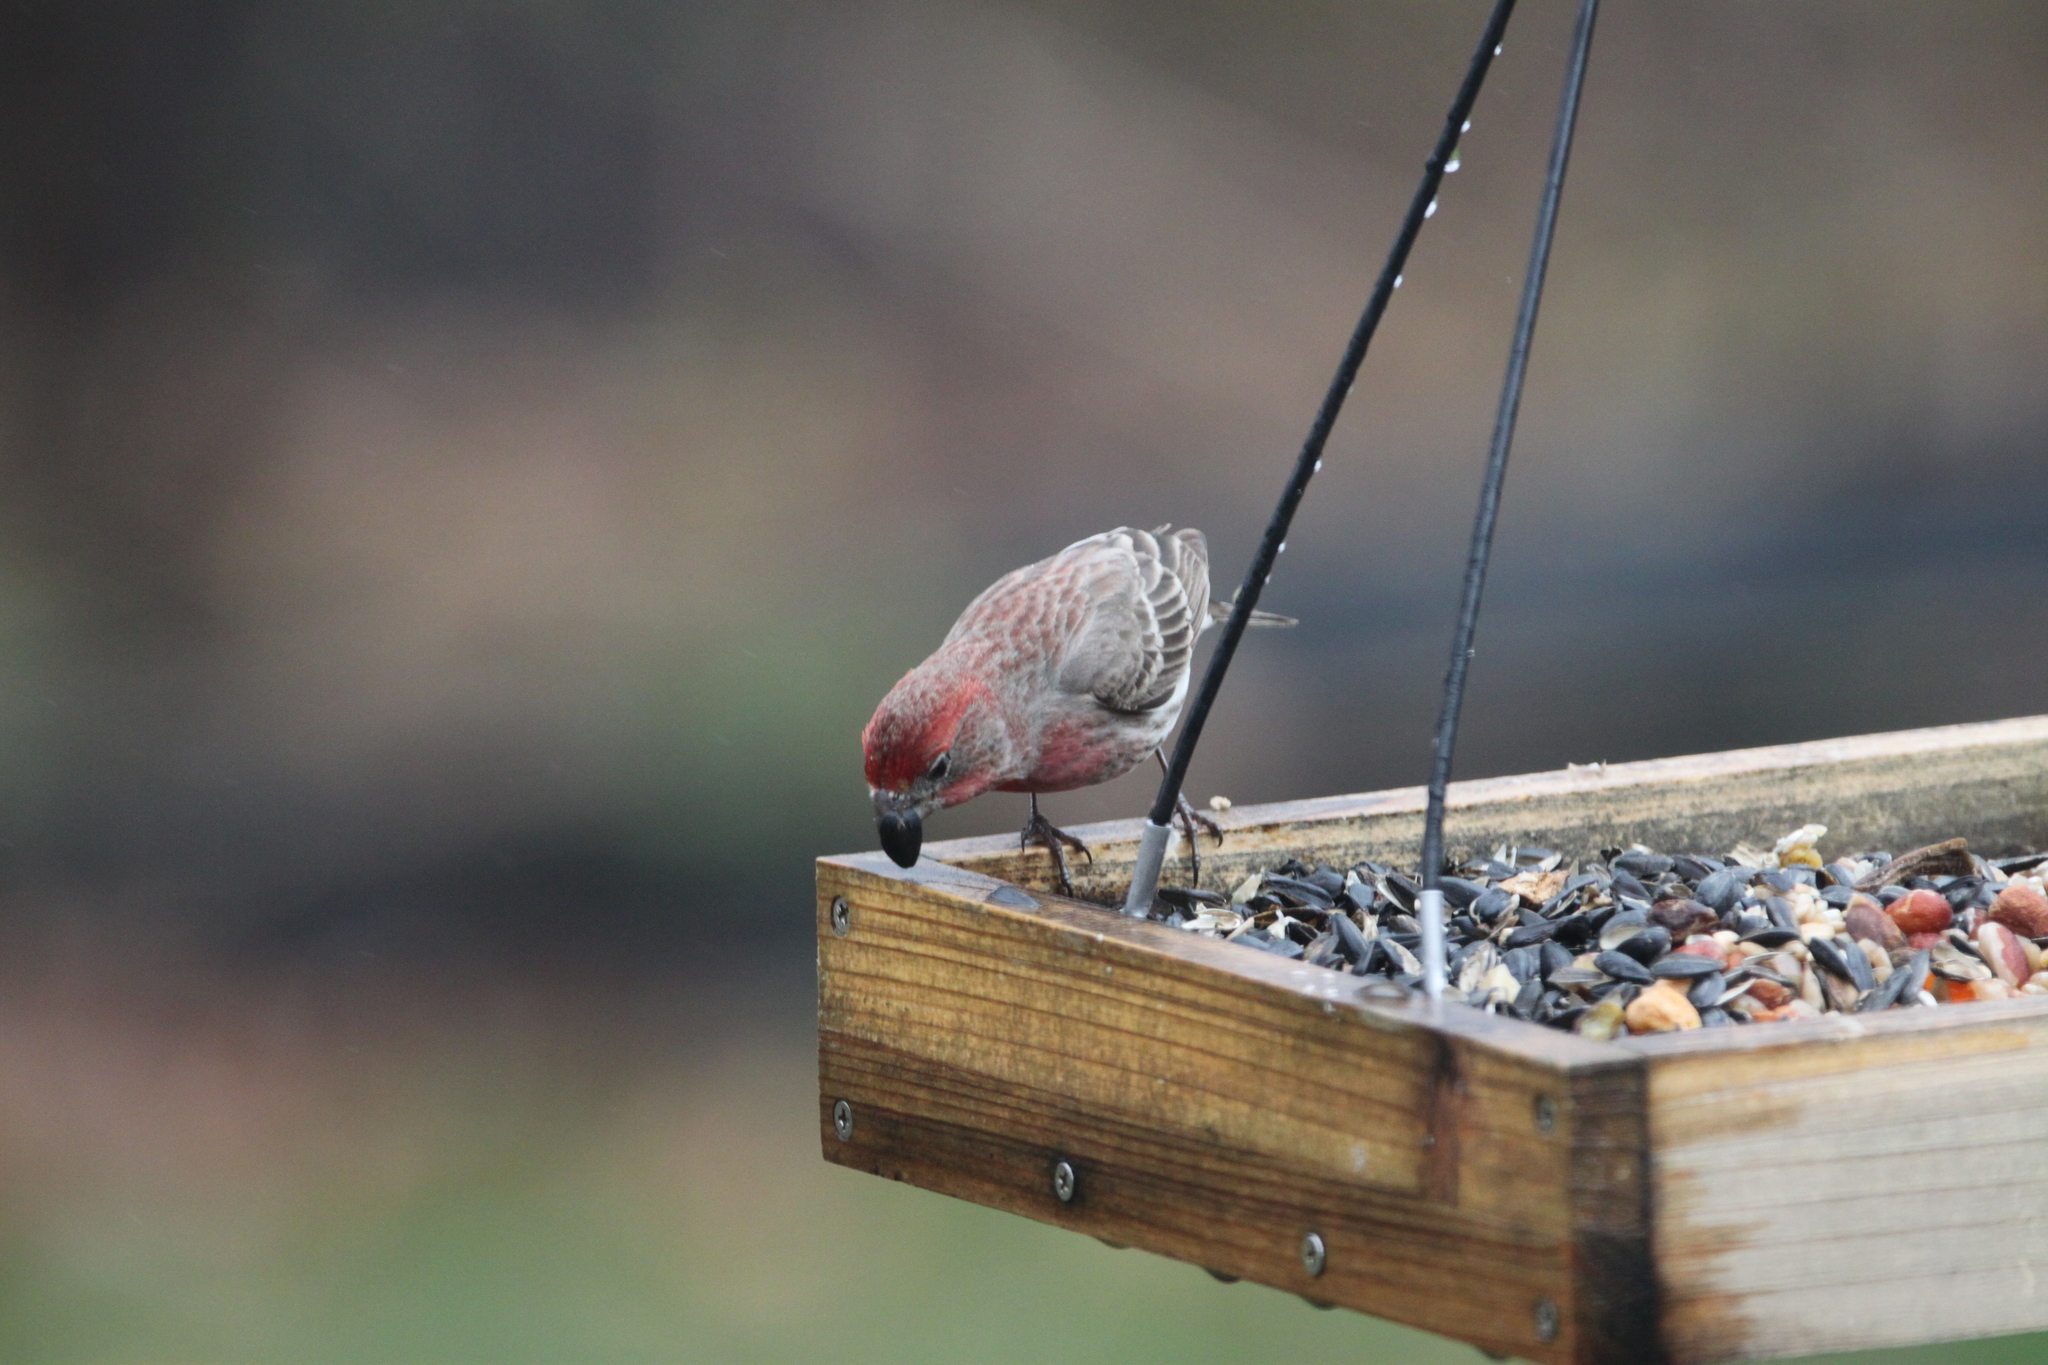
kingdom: Animalia
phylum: Chordata
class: Aves
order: Passeriformes
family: Fringillidae
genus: Haemorhous
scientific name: Haemorhous mexicanus
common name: House finch
